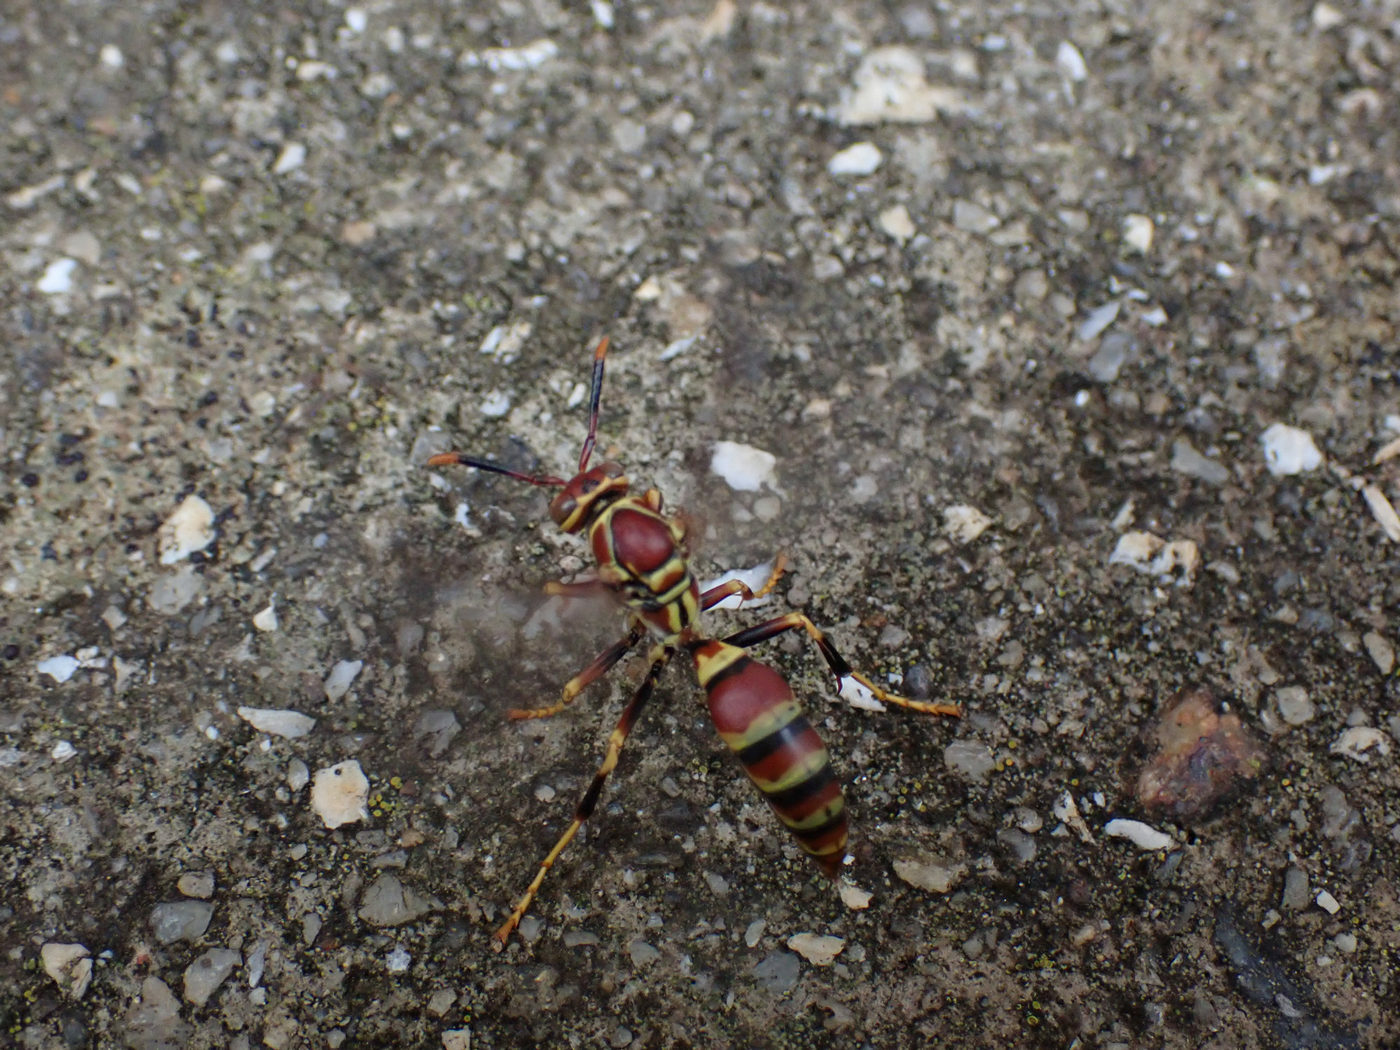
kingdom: Animalia
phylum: Arthropoda
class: Insecta
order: Hymenoptera
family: Eumenidae
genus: Polistes
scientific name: Polistes exclamans
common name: Paper wasp
